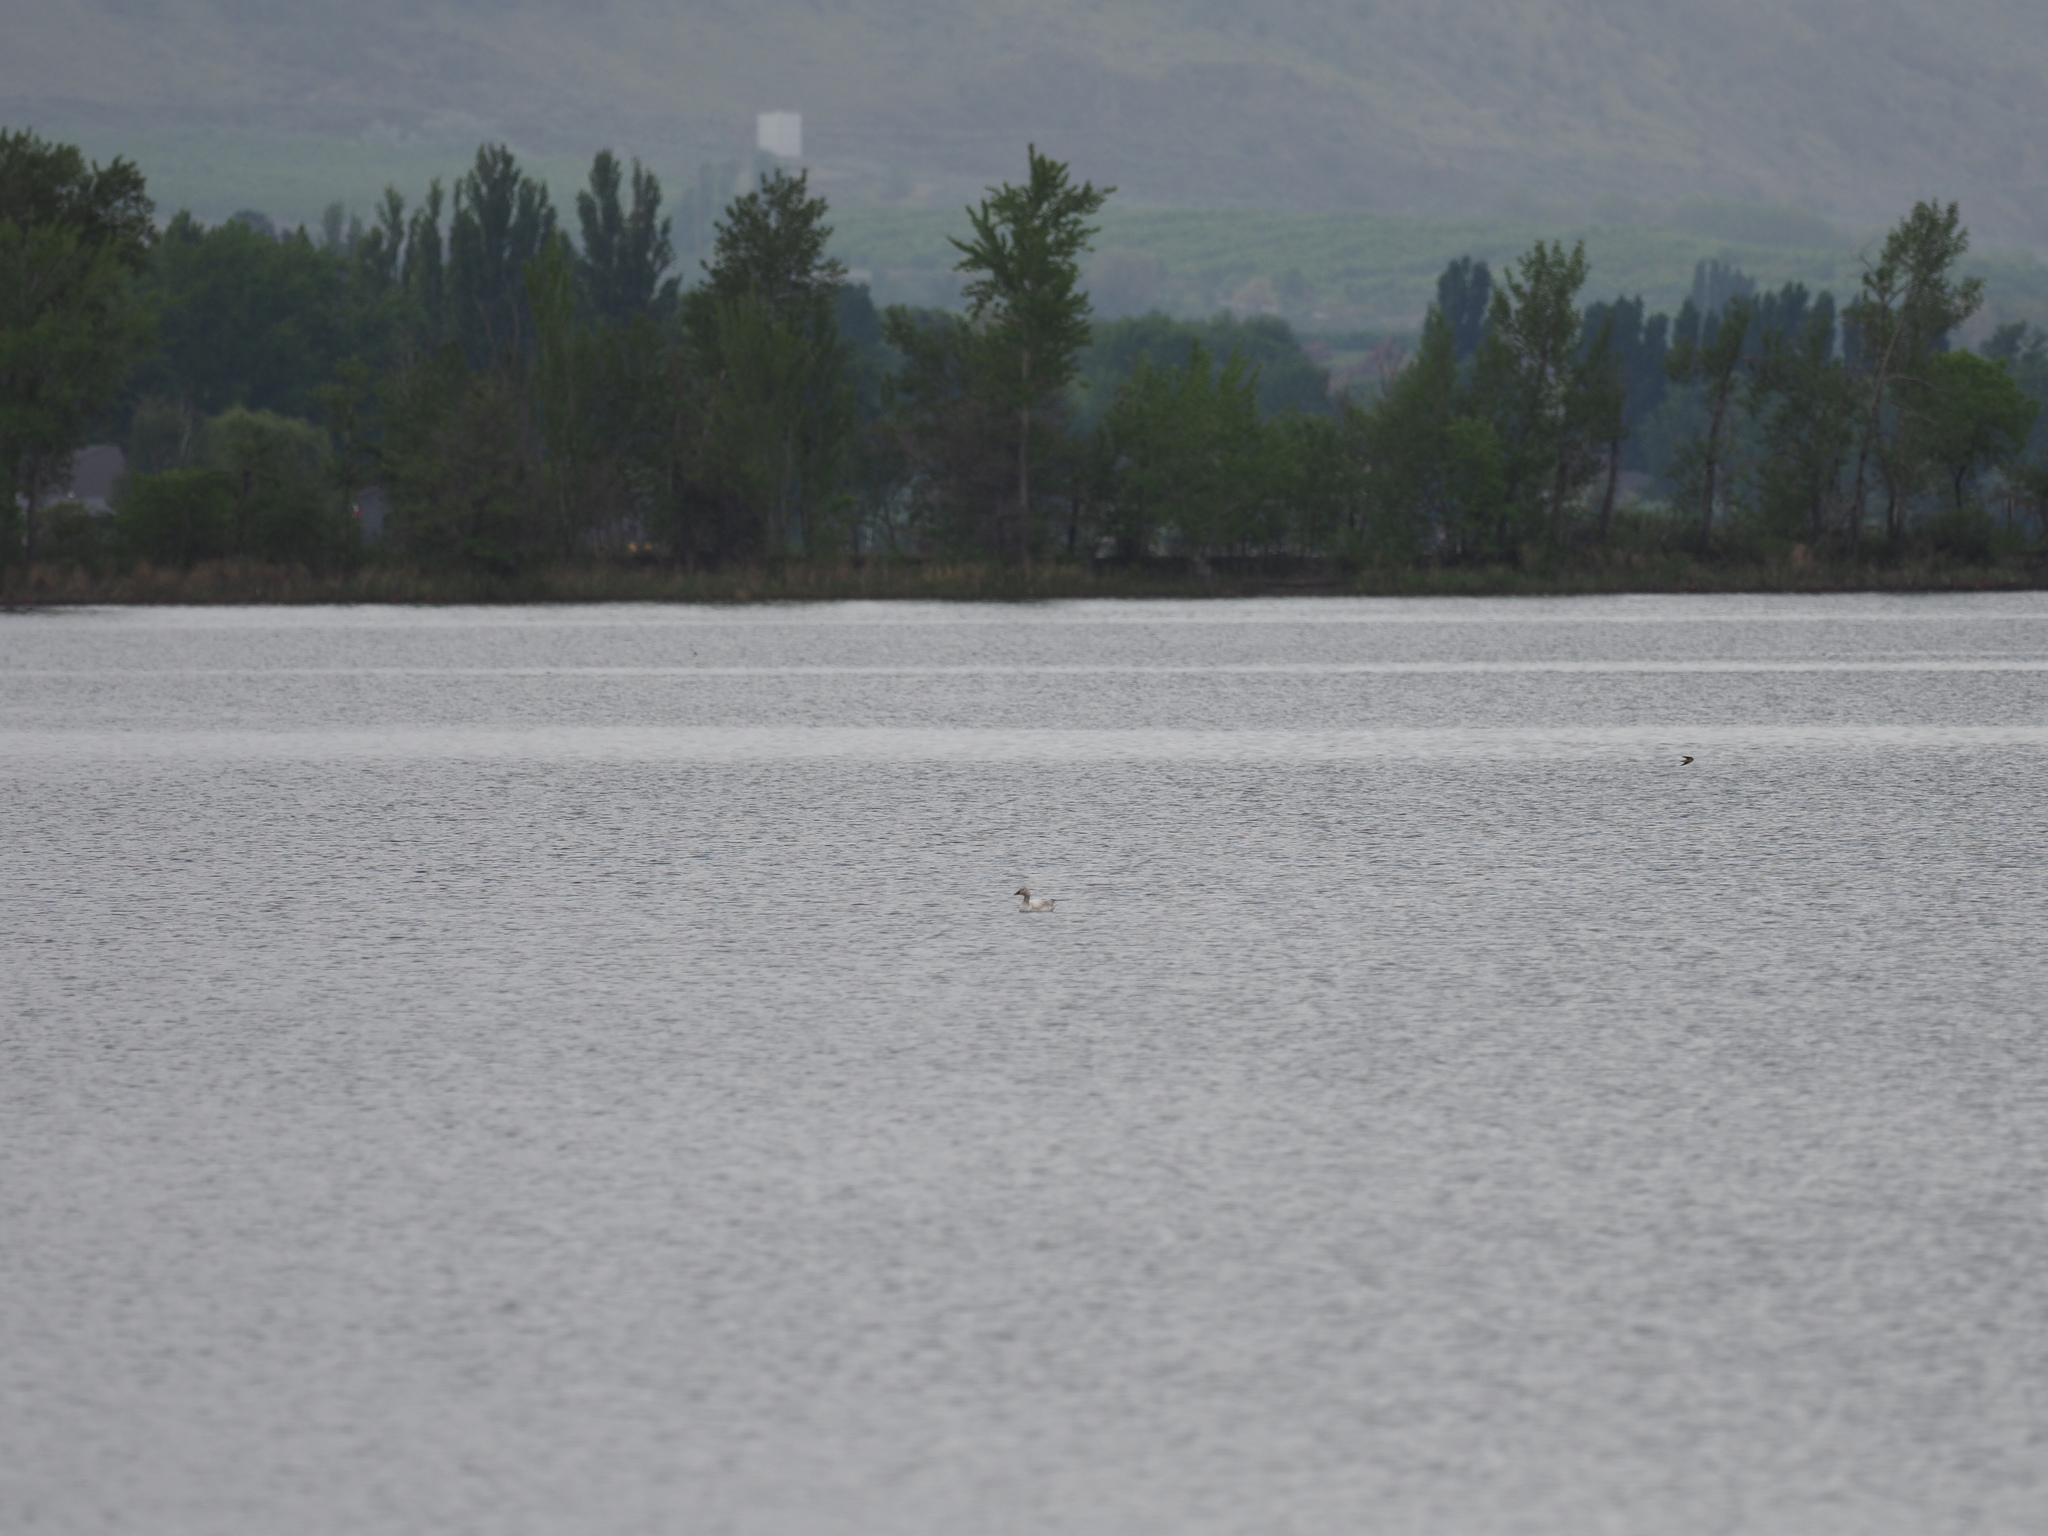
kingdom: Animalia
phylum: Chordata
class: Aves
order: Anseriformes
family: Anatidae
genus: Anser
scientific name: Anser caerulescens
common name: Snow goose
